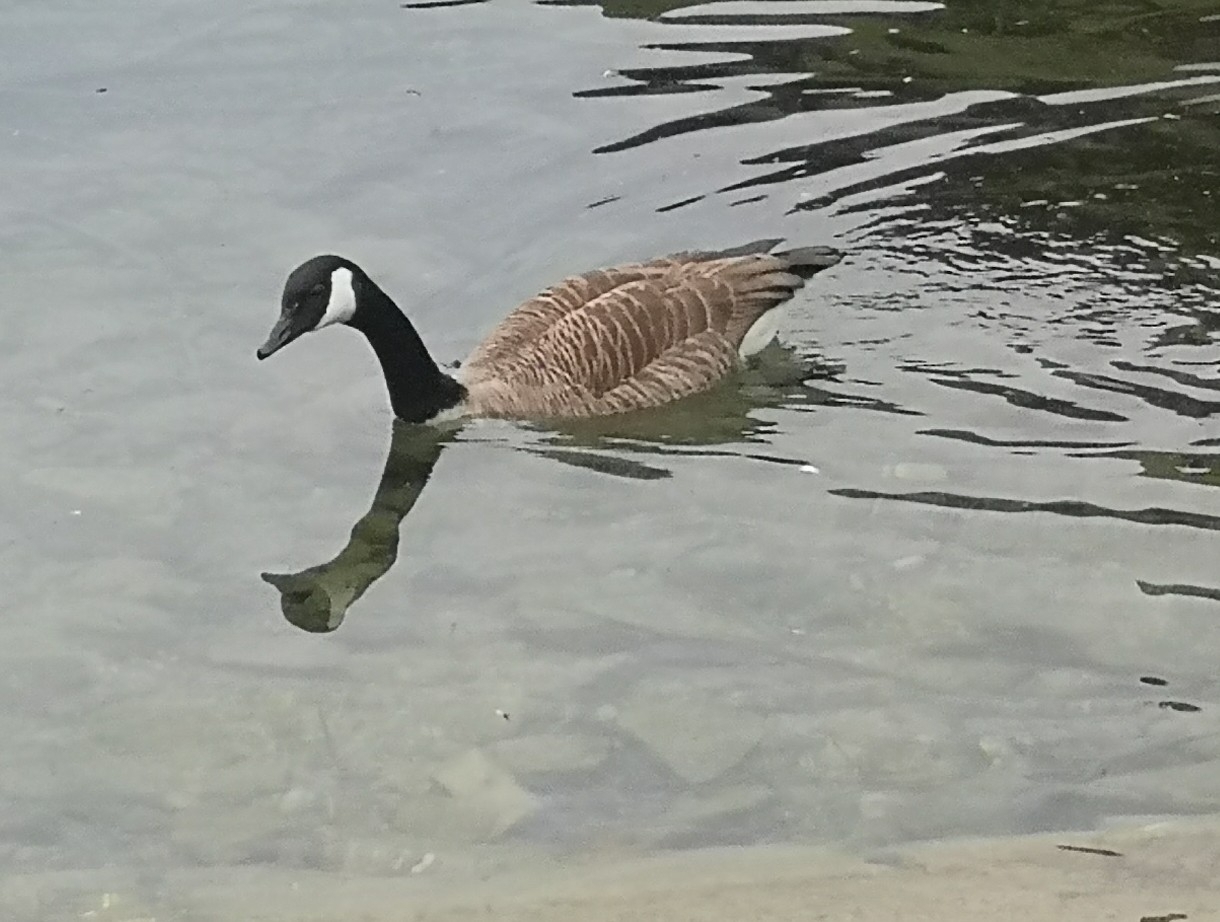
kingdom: Animalia
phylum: Chordata
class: Aves
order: Anseriformes
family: Anatidae
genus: Branta
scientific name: Branta canadensis
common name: Canada goose
